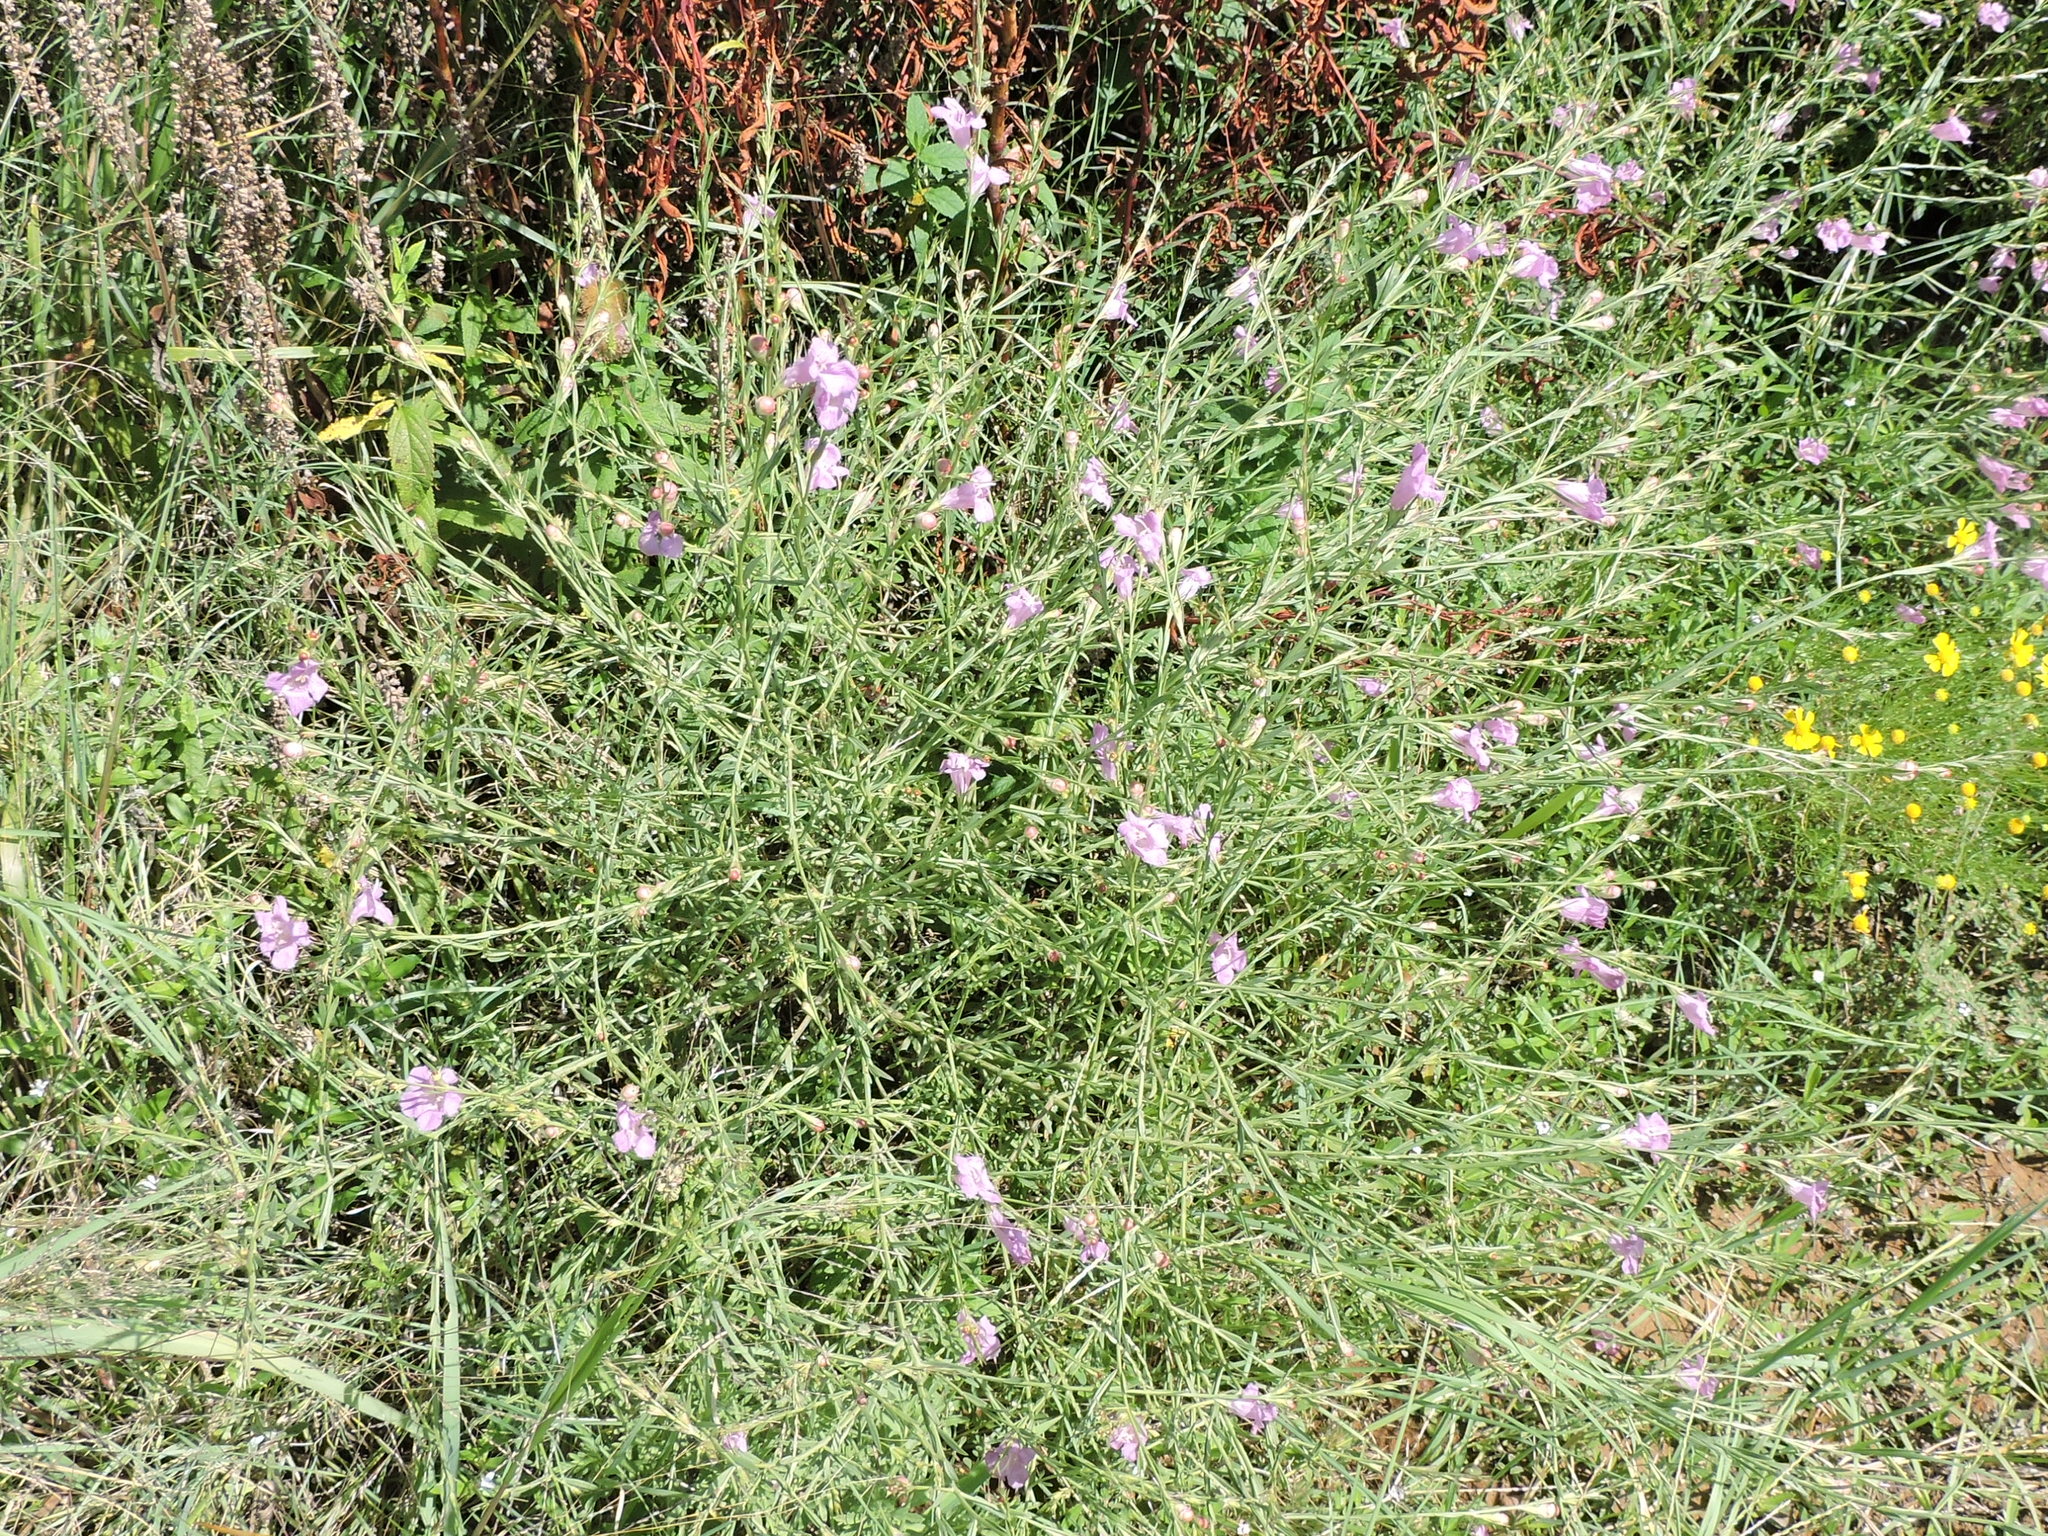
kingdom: Plantae
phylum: Tracheophyta
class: Magnoliopsida
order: Lamiales
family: Orobanchaceae
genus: Agalinis
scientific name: Agalinis heterophylla
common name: Prairie agalinis
